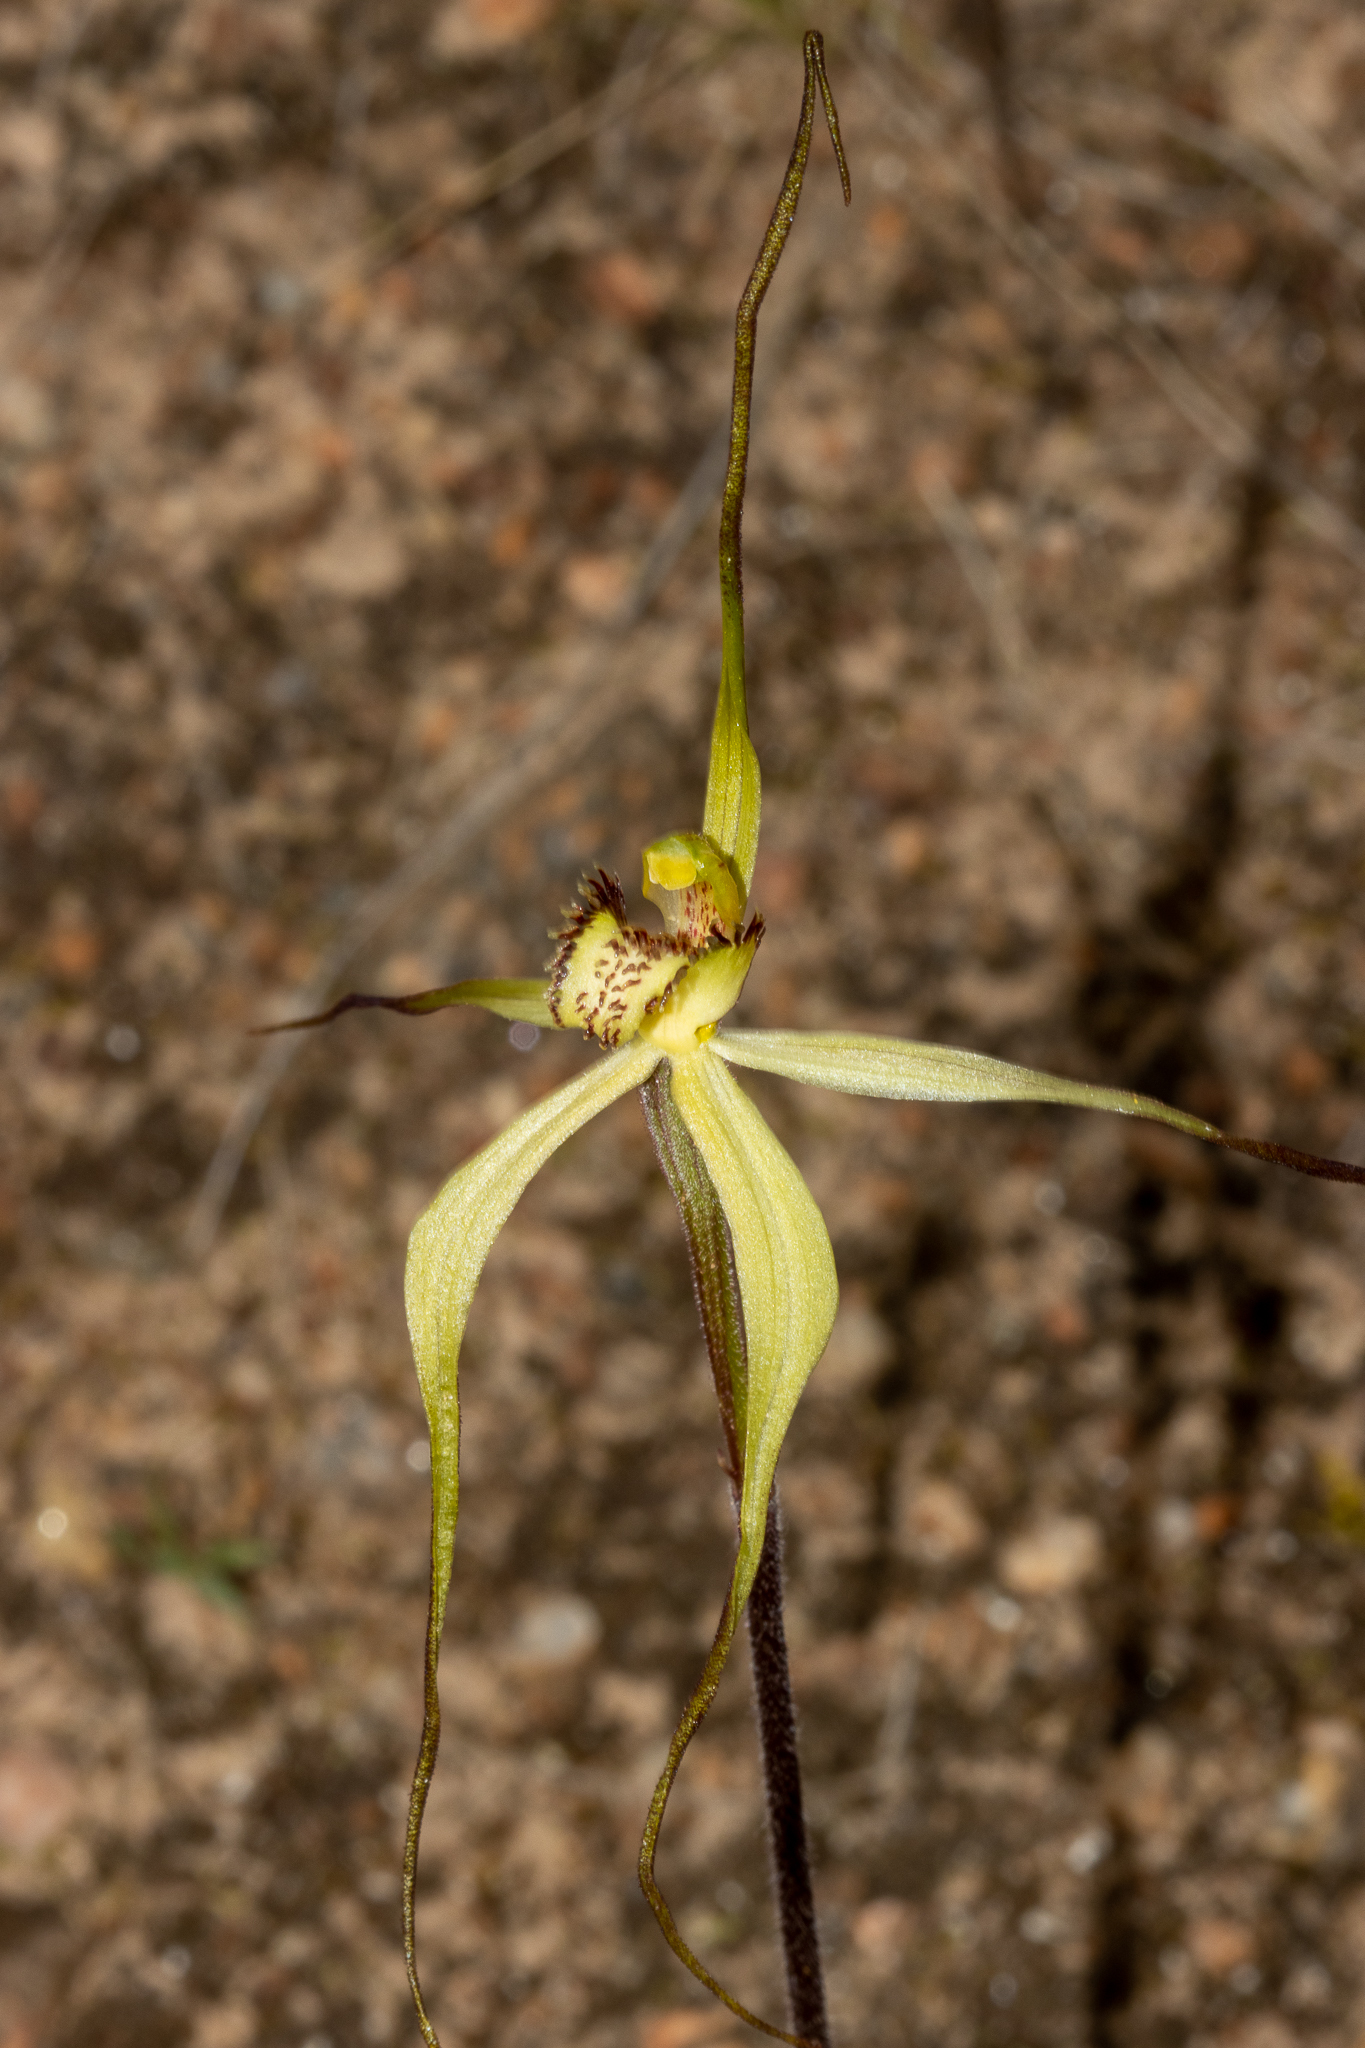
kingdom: Plantae
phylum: Tracheophyta
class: Liliopsida
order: Asparagales
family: Orchidaceae
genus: Caladenia
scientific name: Caladenia zephyra
